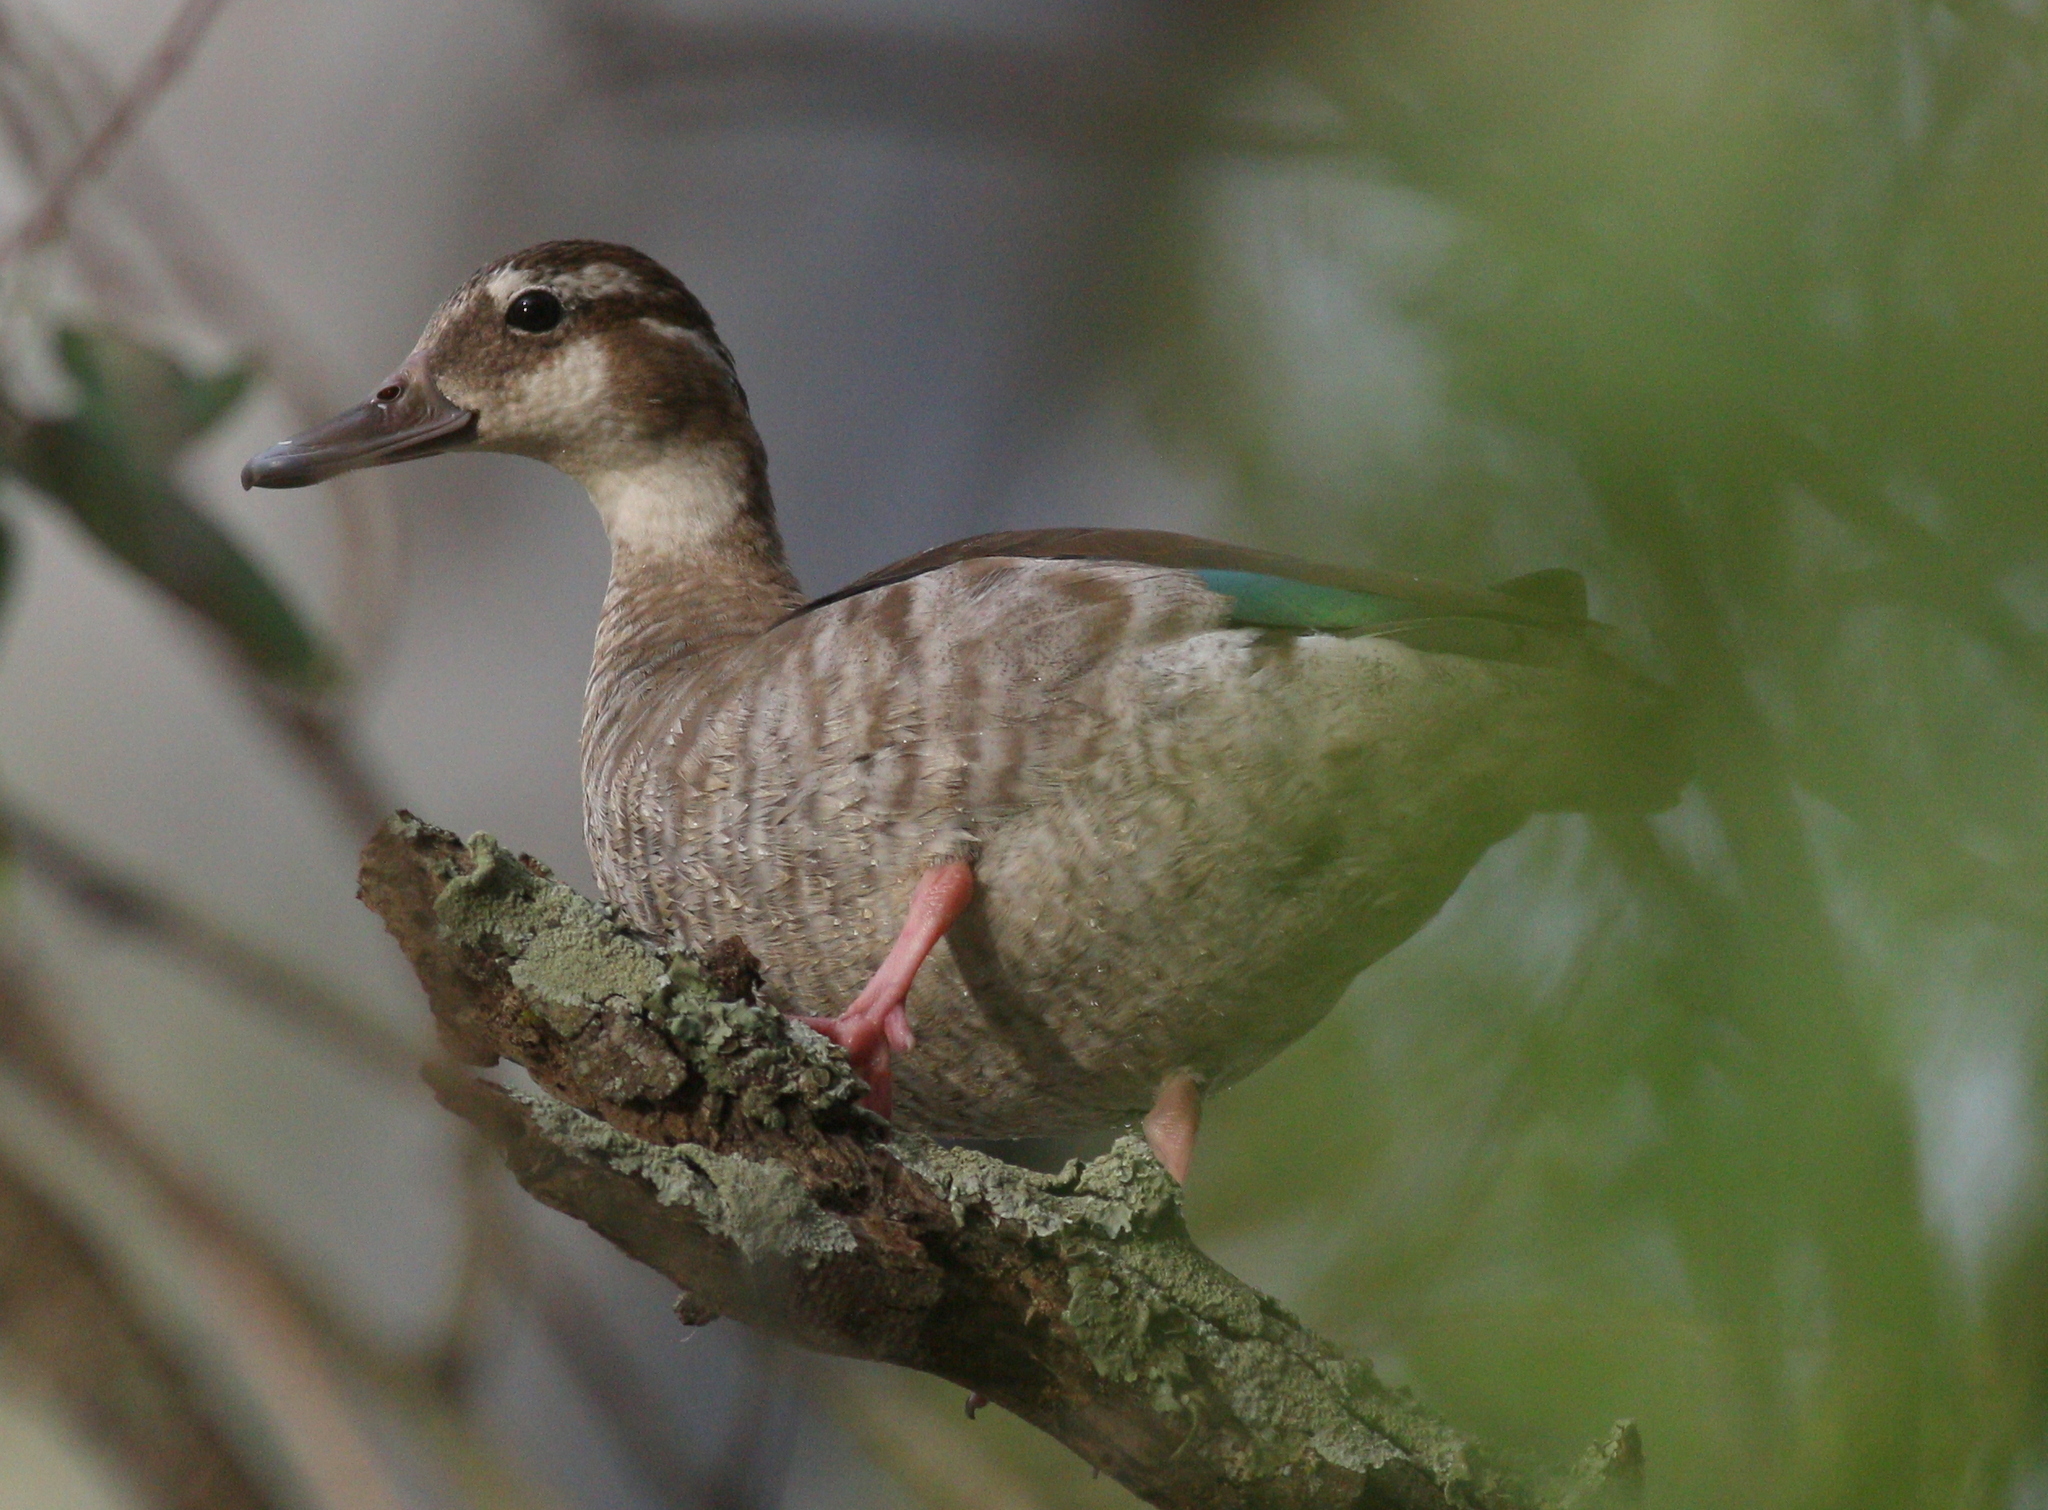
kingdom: Animalia
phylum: Chordata
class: Aves
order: Anseriformes
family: Anatidae
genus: Callonetta
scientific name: Callonetta leucophrys
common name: Ringed teal
